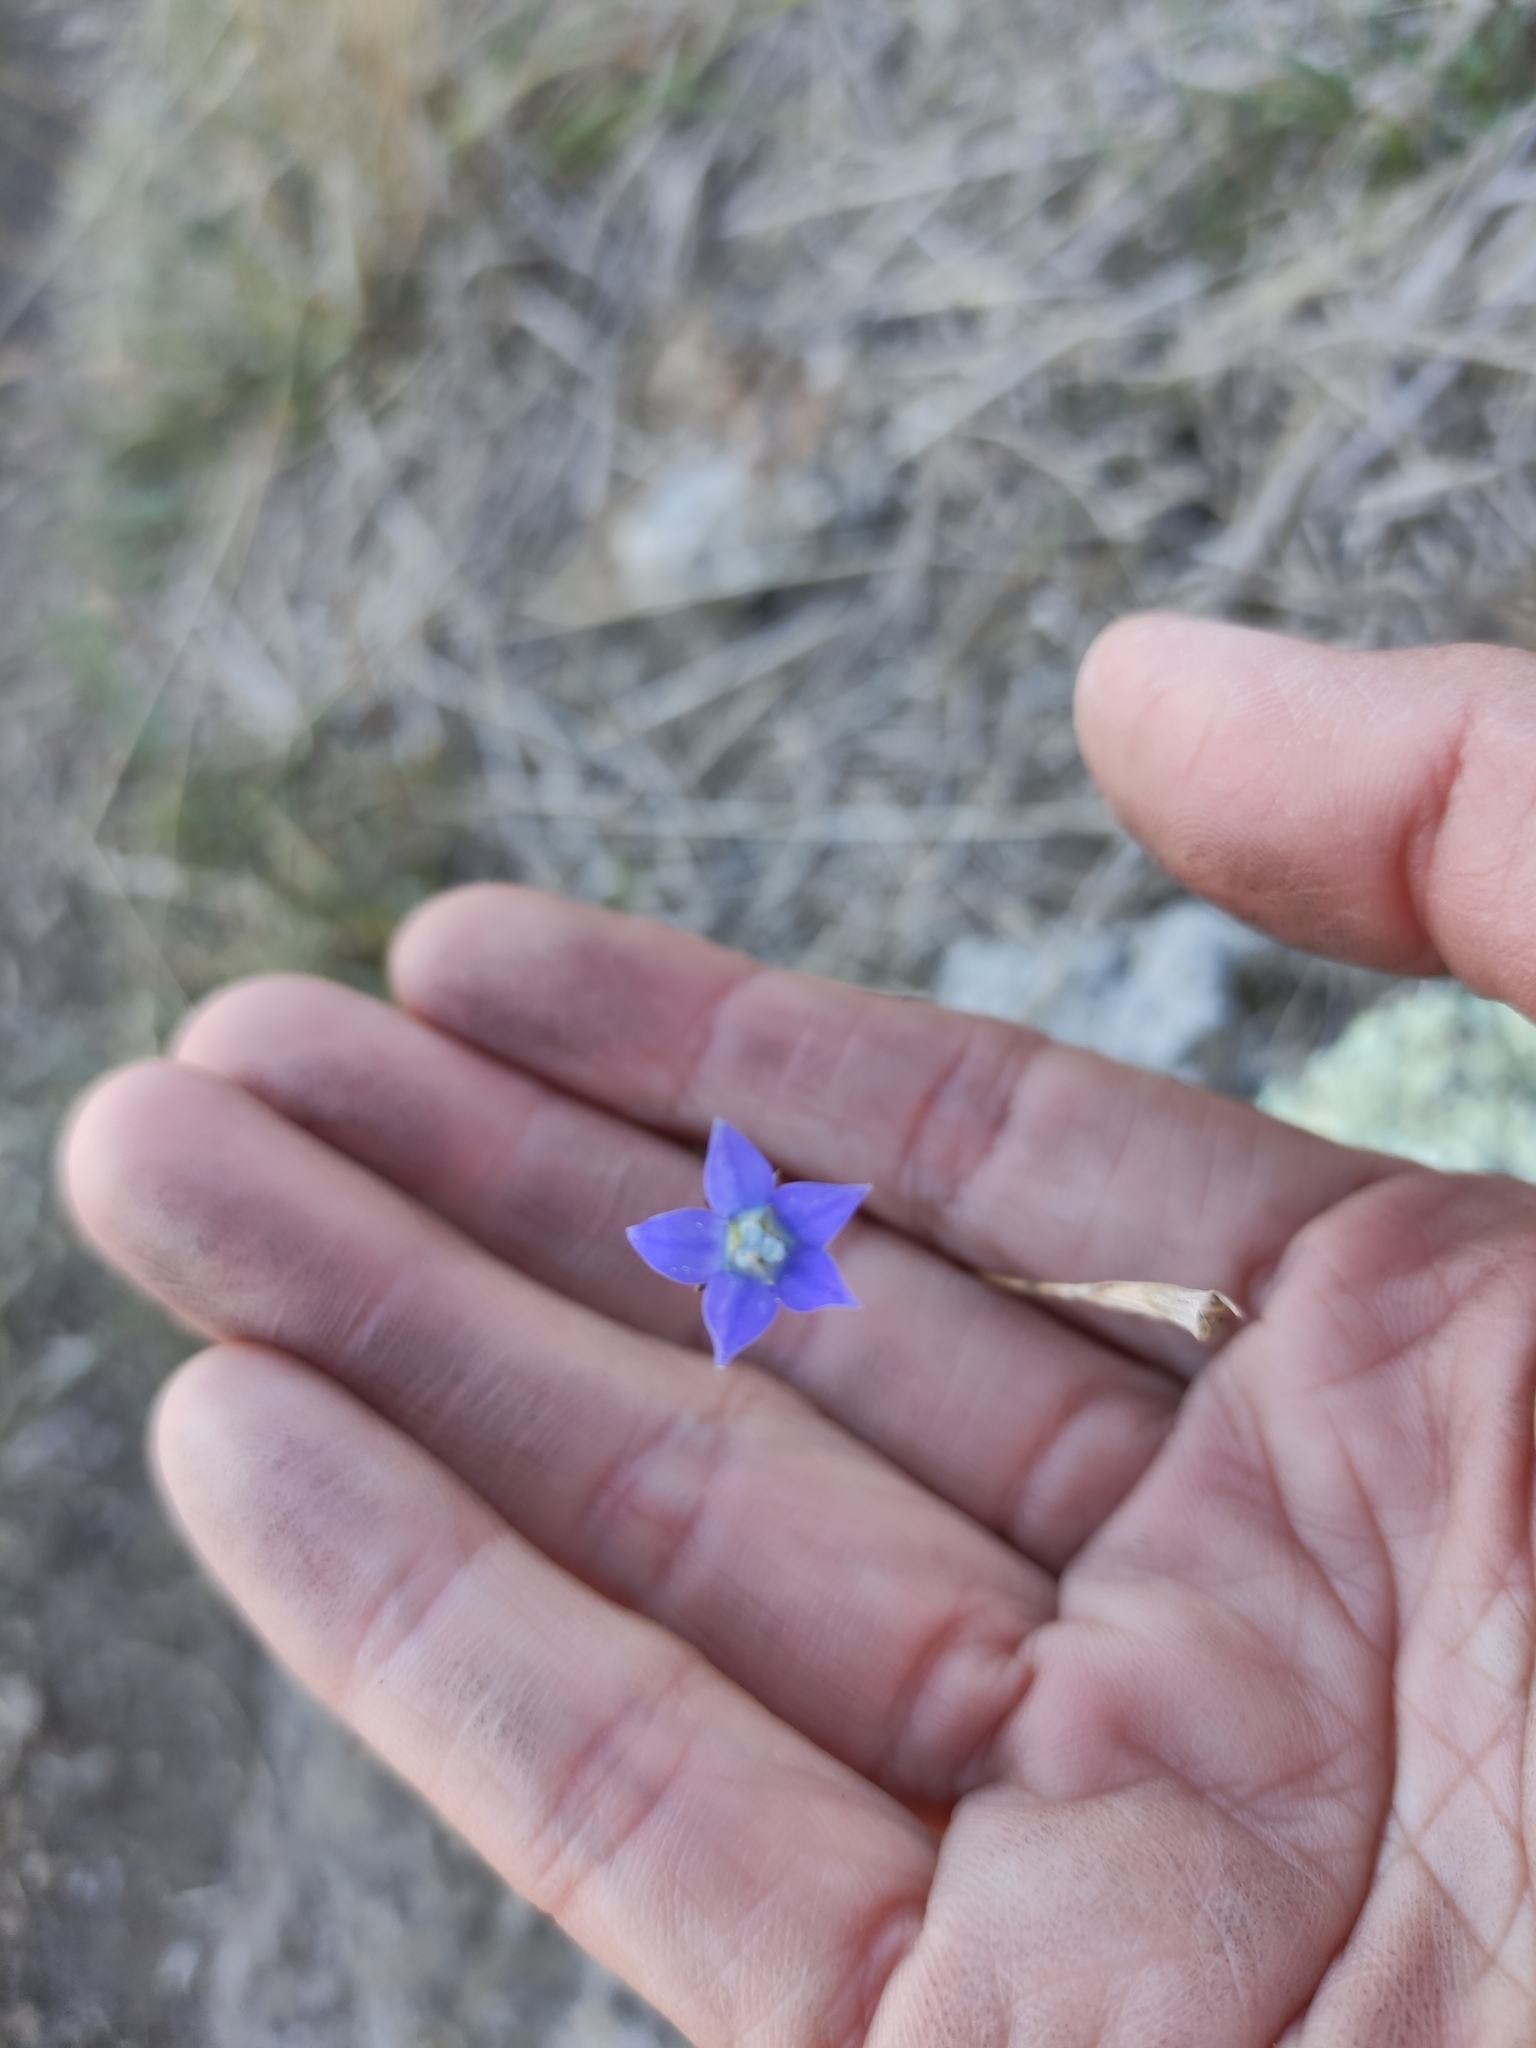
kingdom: Plantae
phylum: Tracheophyta
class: Magnoliopsida
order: Asterales
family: Campanulaceae
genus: Wahlenbergia
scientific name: Wahlenbergia violacea
